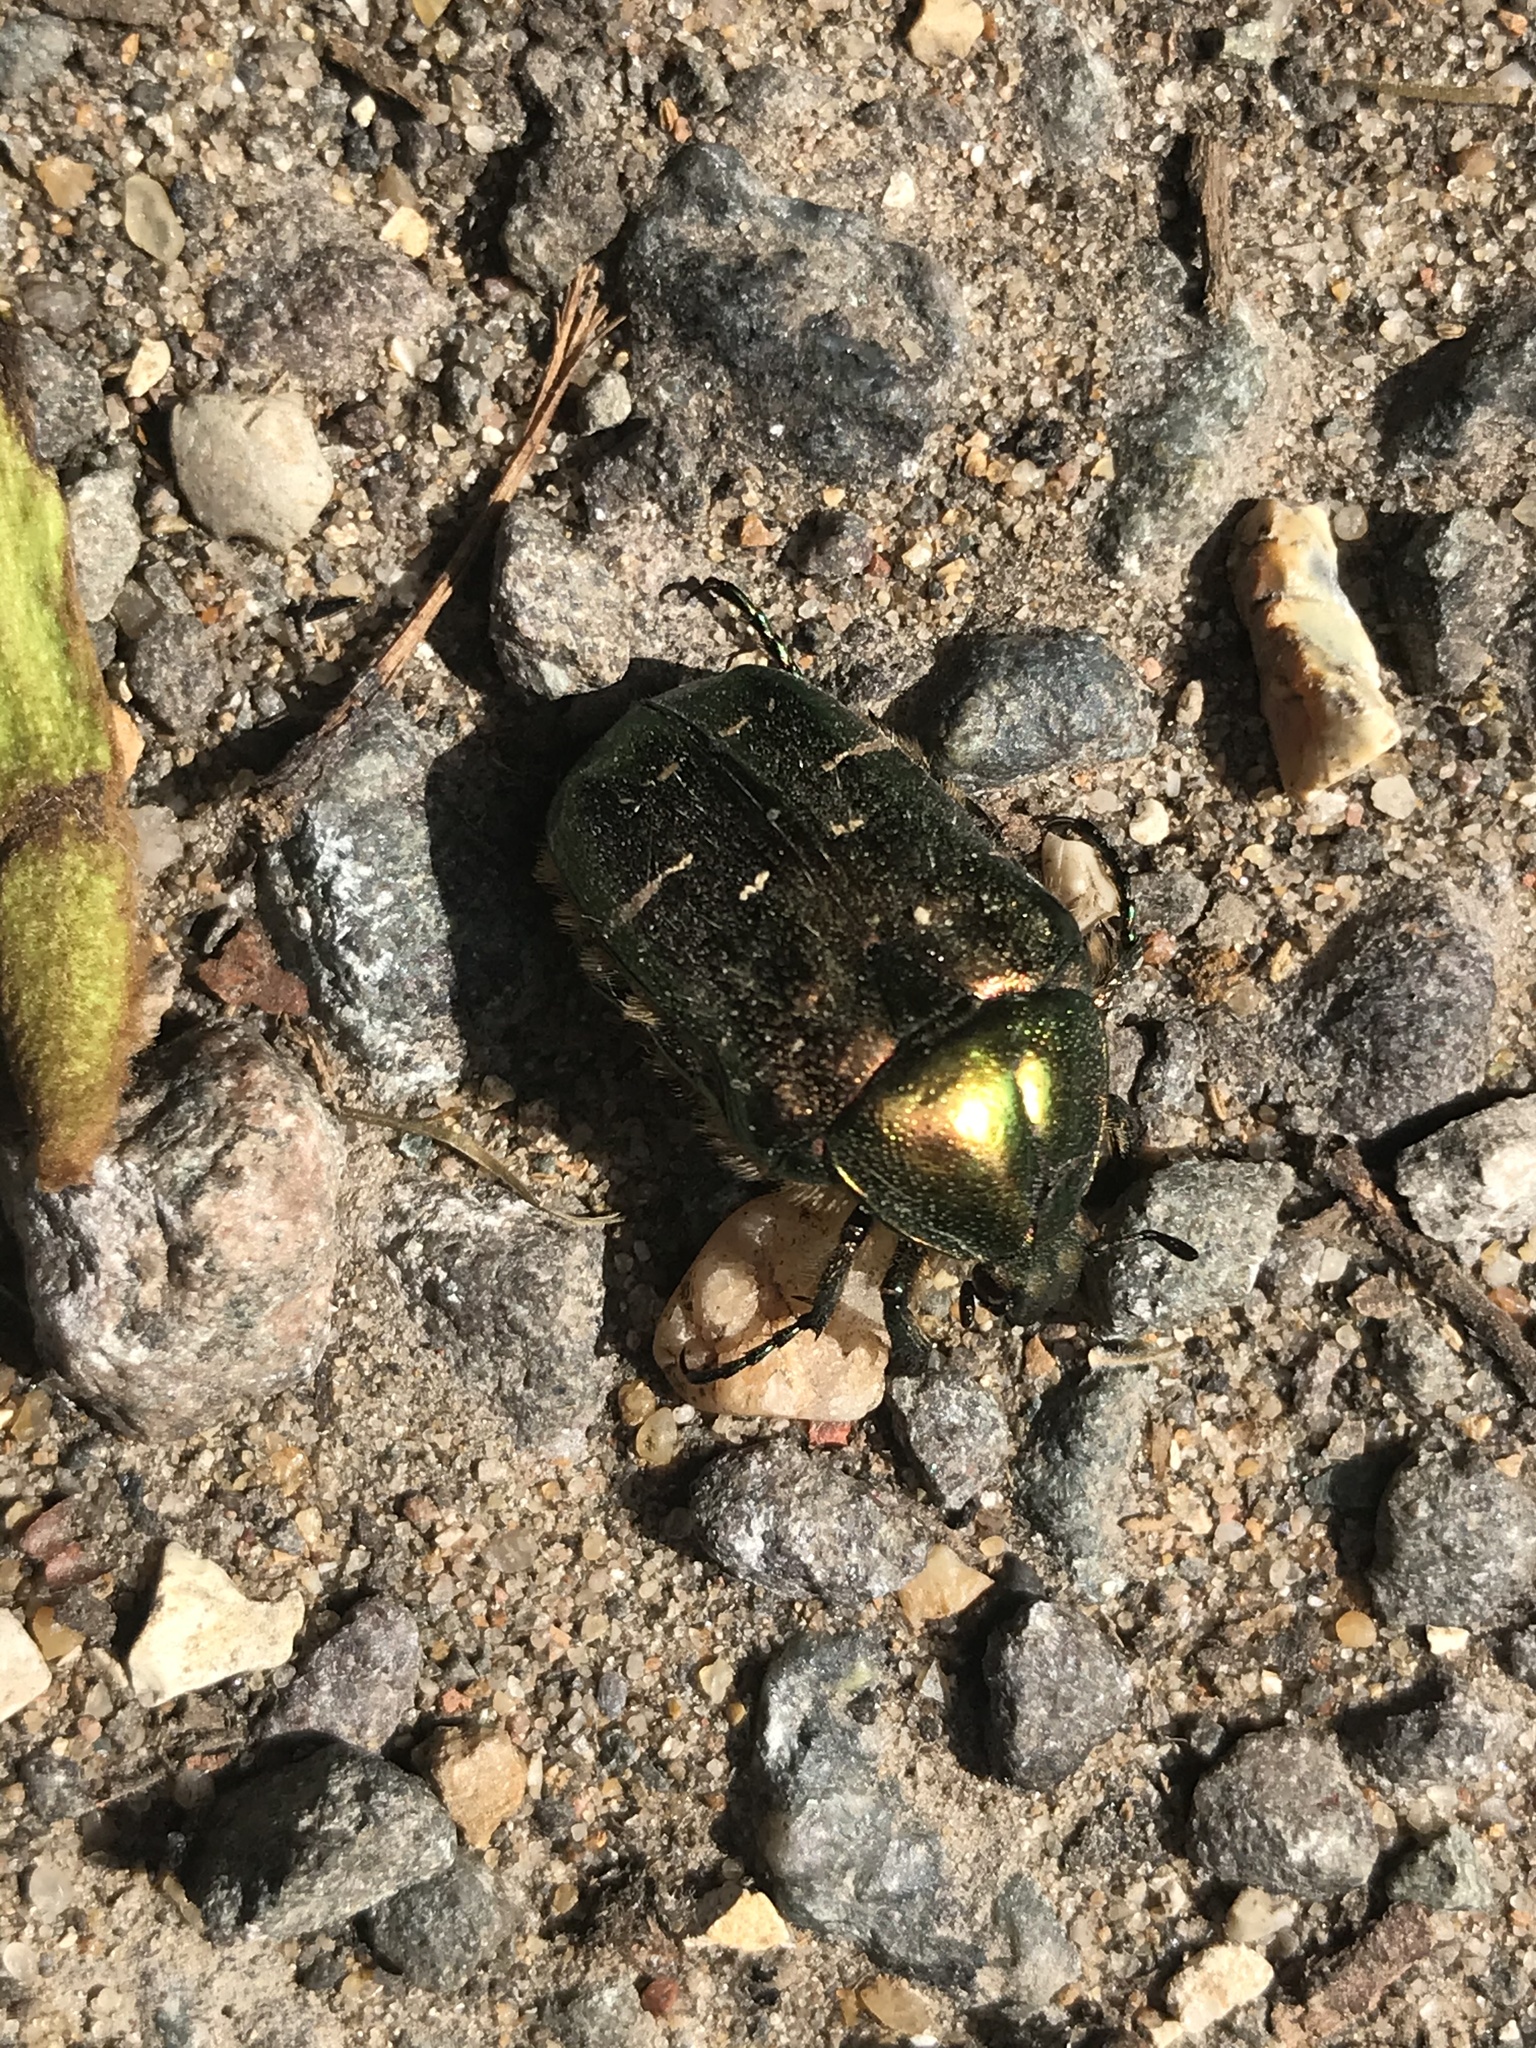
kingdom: Animalia
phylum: Arthropoda
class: Insecta
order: Coleoptera
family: Scarabaeidae
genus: Cetonia
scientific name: Cetonia aurata
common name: Rose chafer
